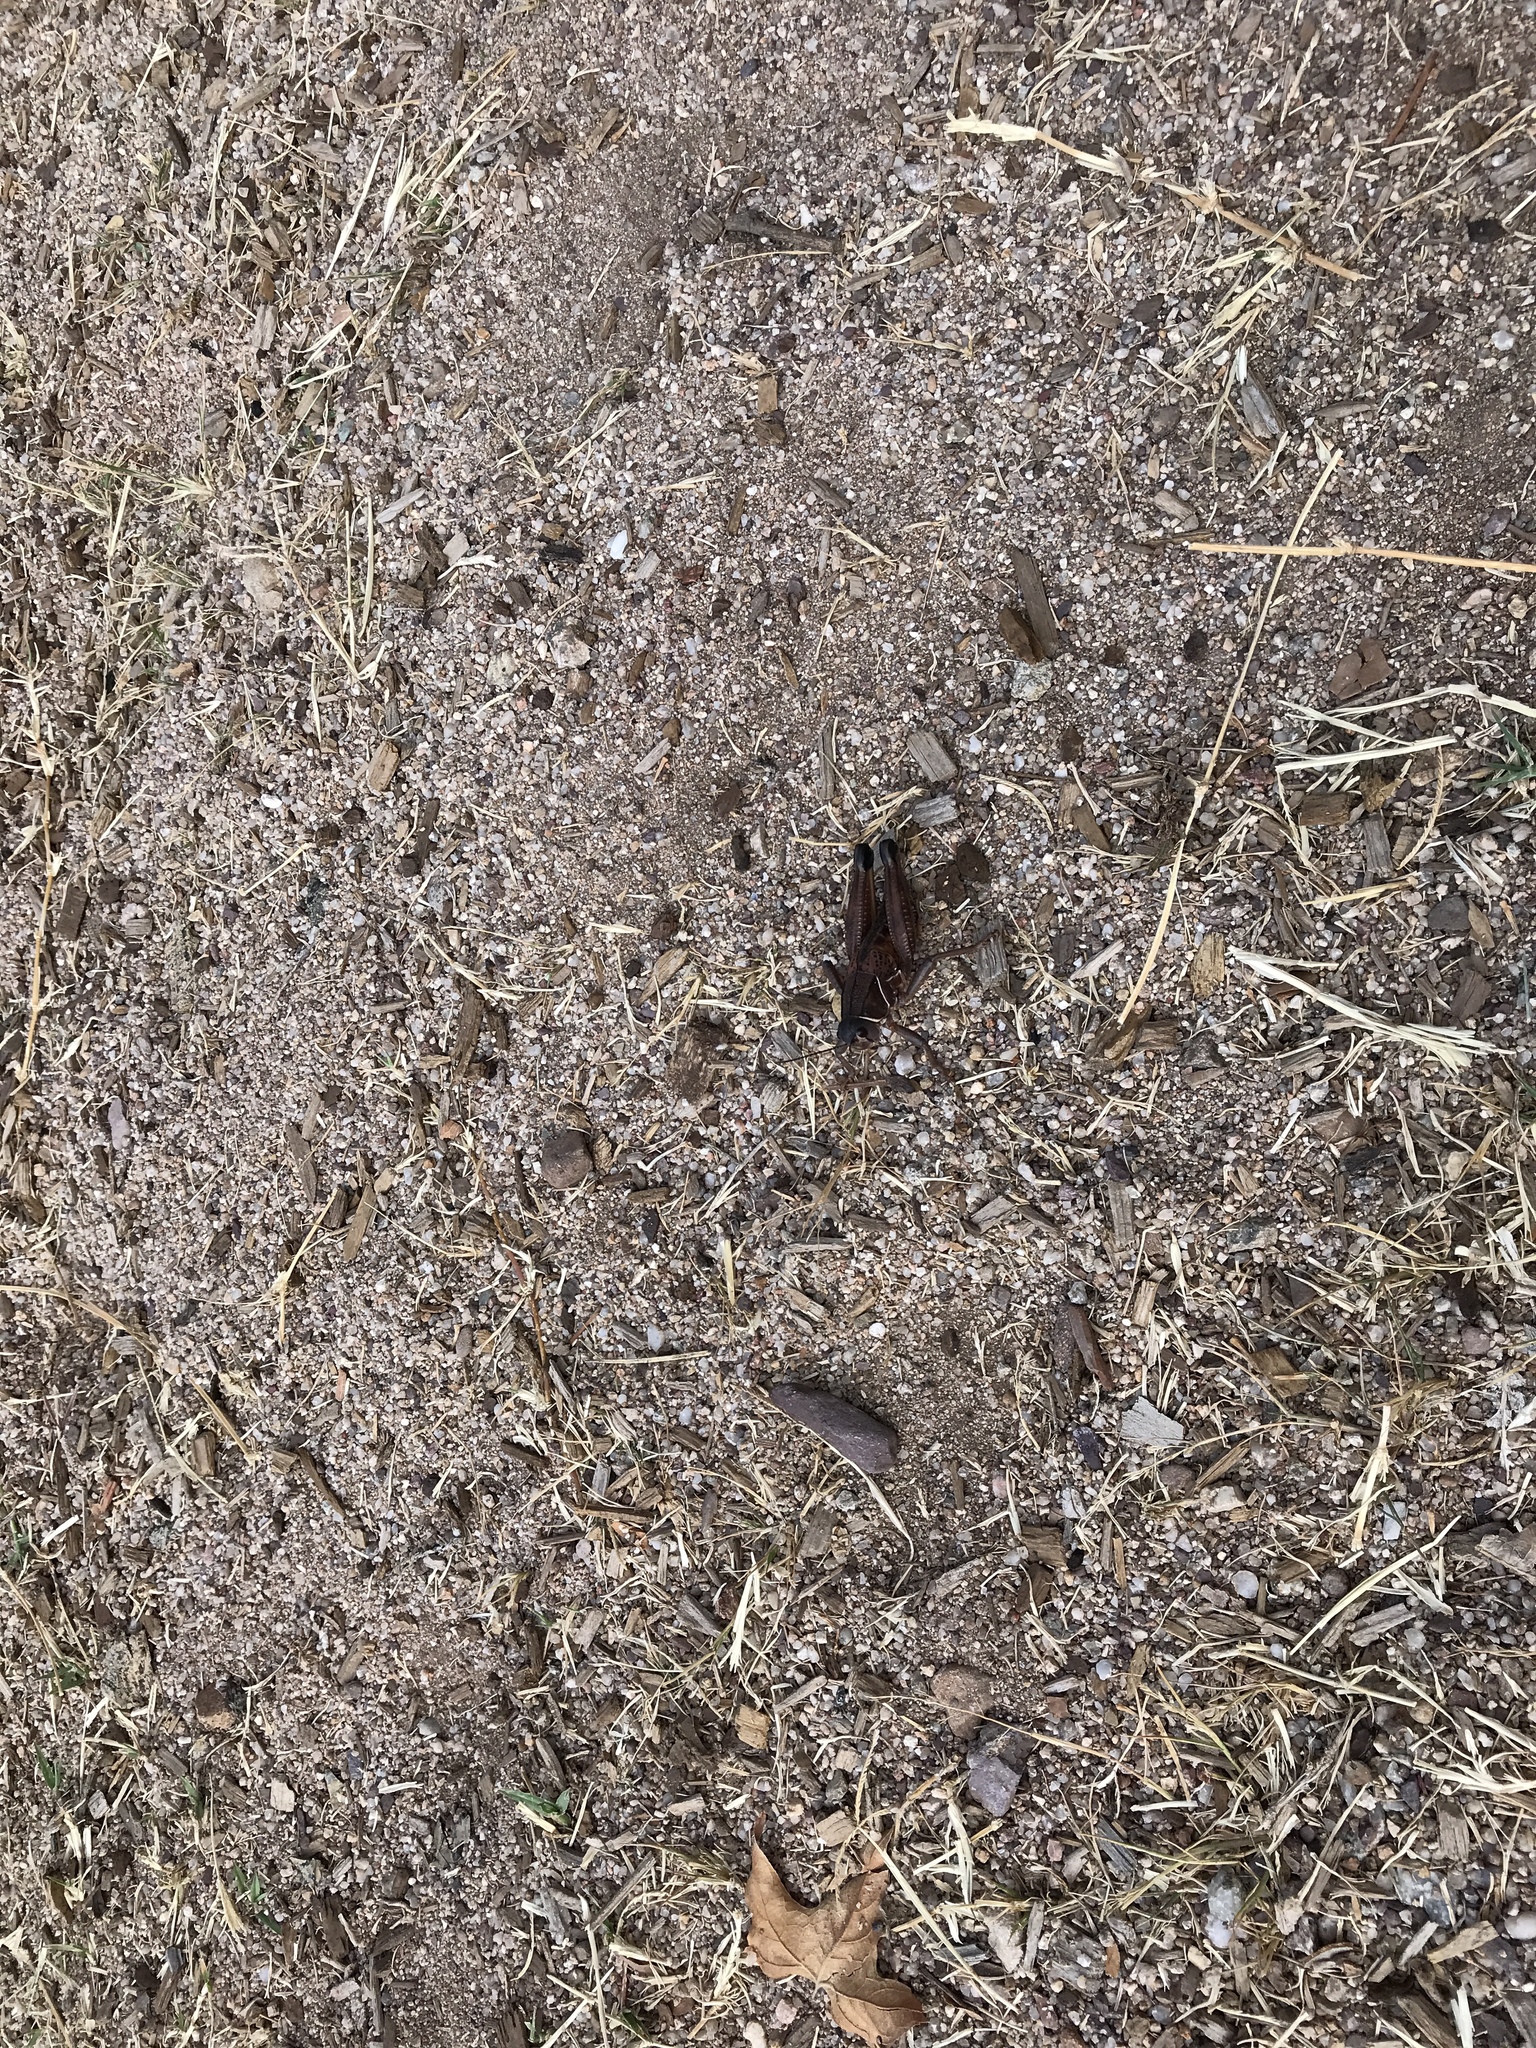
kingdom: Animalia
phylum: Arthropoda
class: Insecta
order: Orthoptera
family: Romaleidae
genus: Brachystola
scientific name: Brachystola magna
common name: Plains lubber grasshopper
